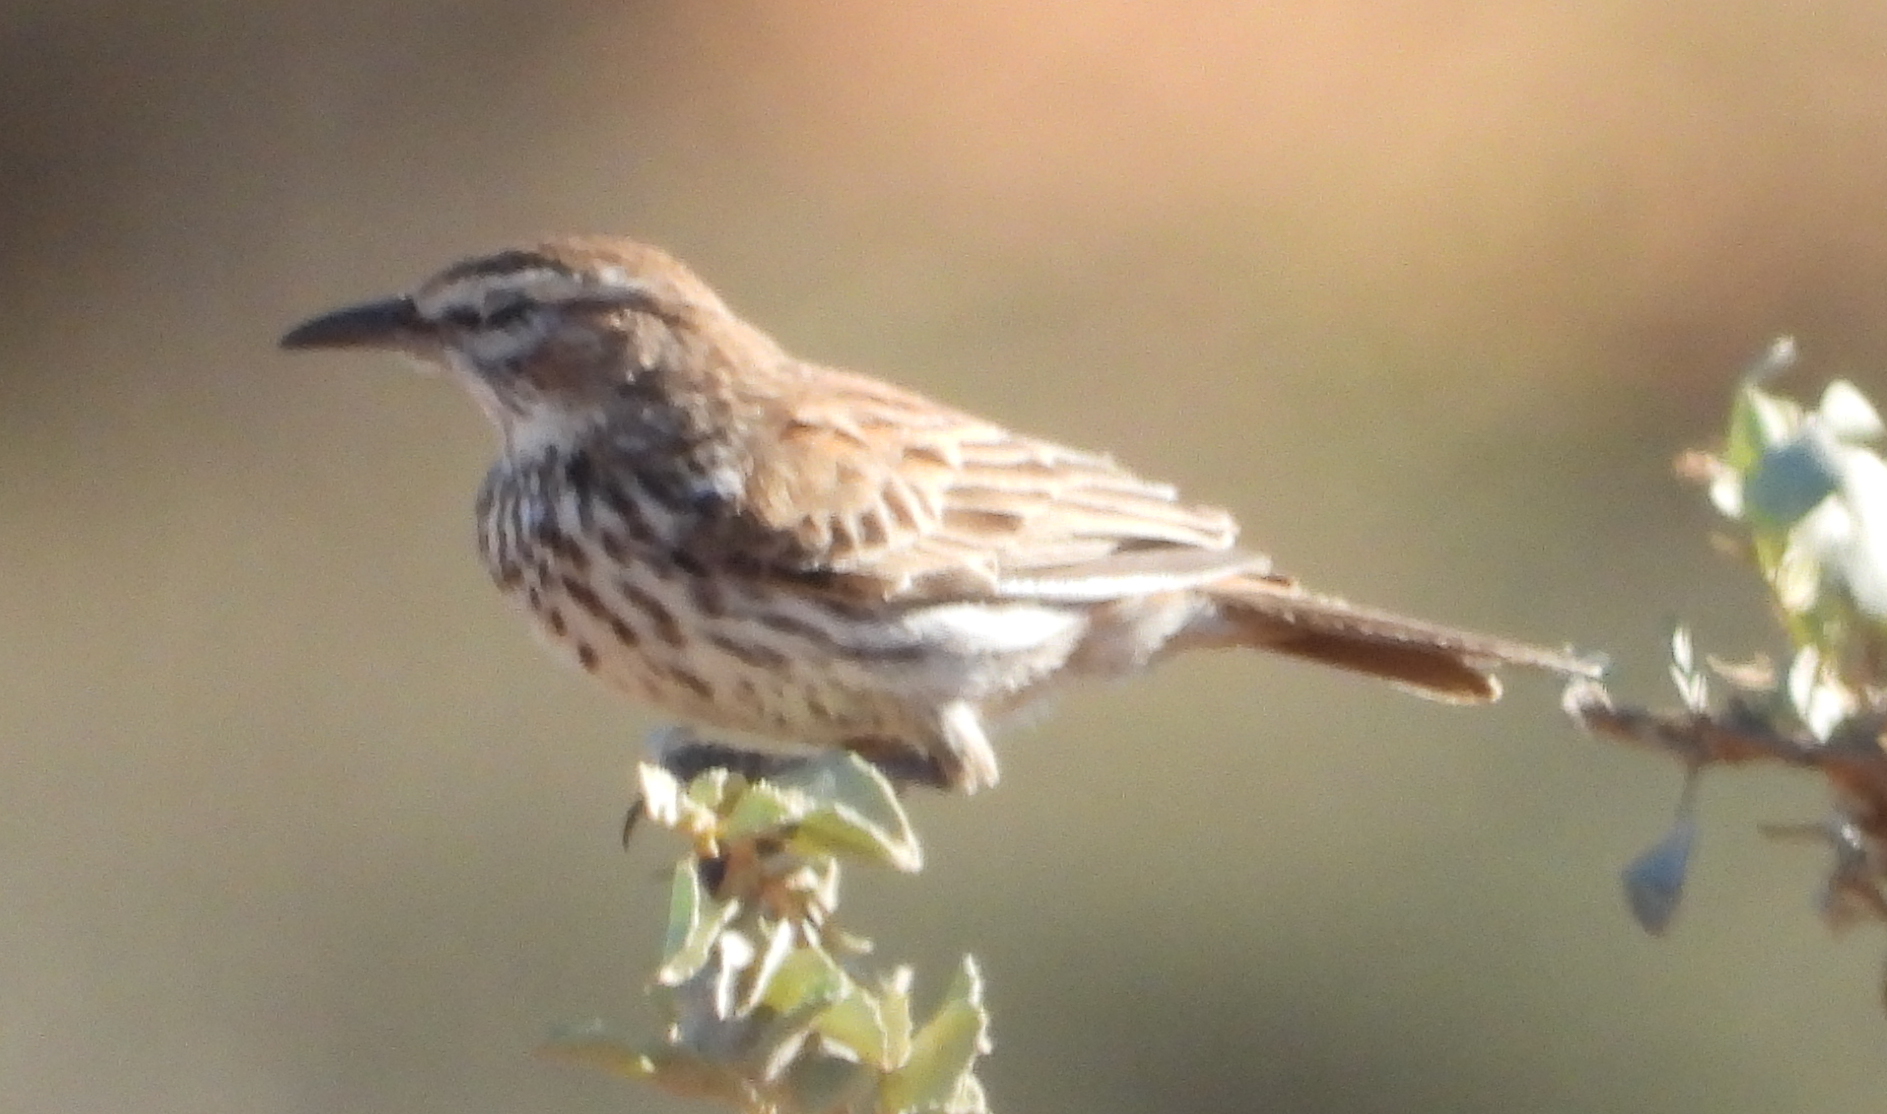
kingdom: Animalia
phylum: Chordata
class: Aves
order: Passeriformes
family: Alaudidae
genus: Calendulauda
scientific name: Calendulauda albescens
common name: Karoo lark
